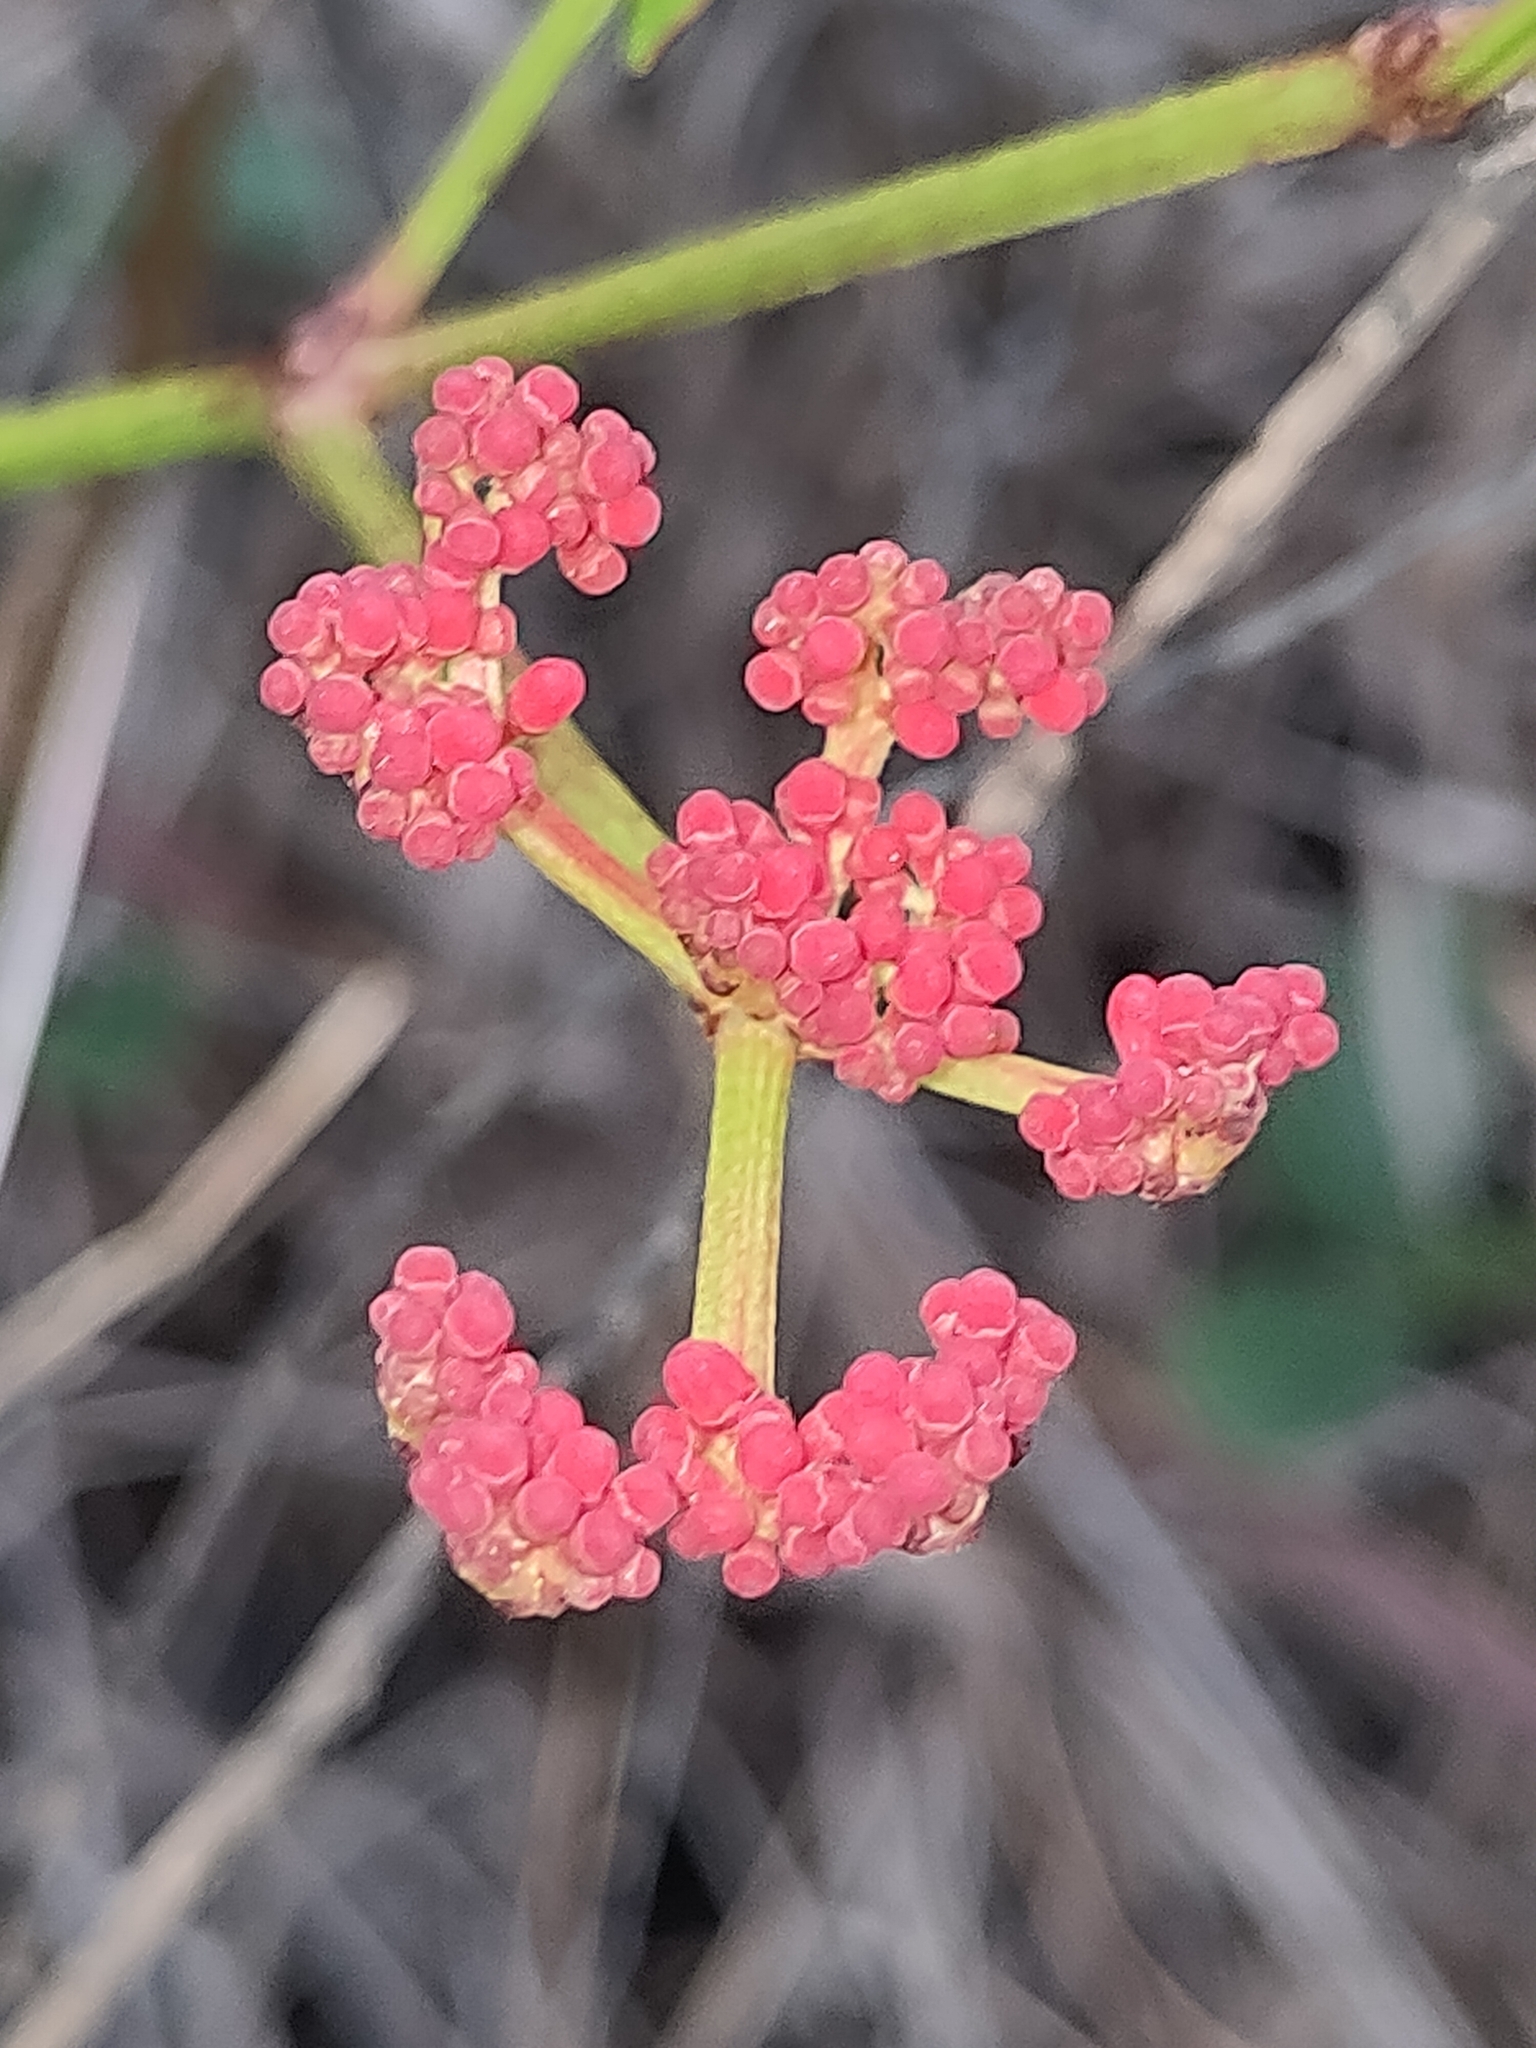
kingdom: Plantae
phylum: Tracheophyta
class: Magnoliopsida
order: Vitales
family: Vitaceae
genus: Cissus
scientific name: Cissus erosa
